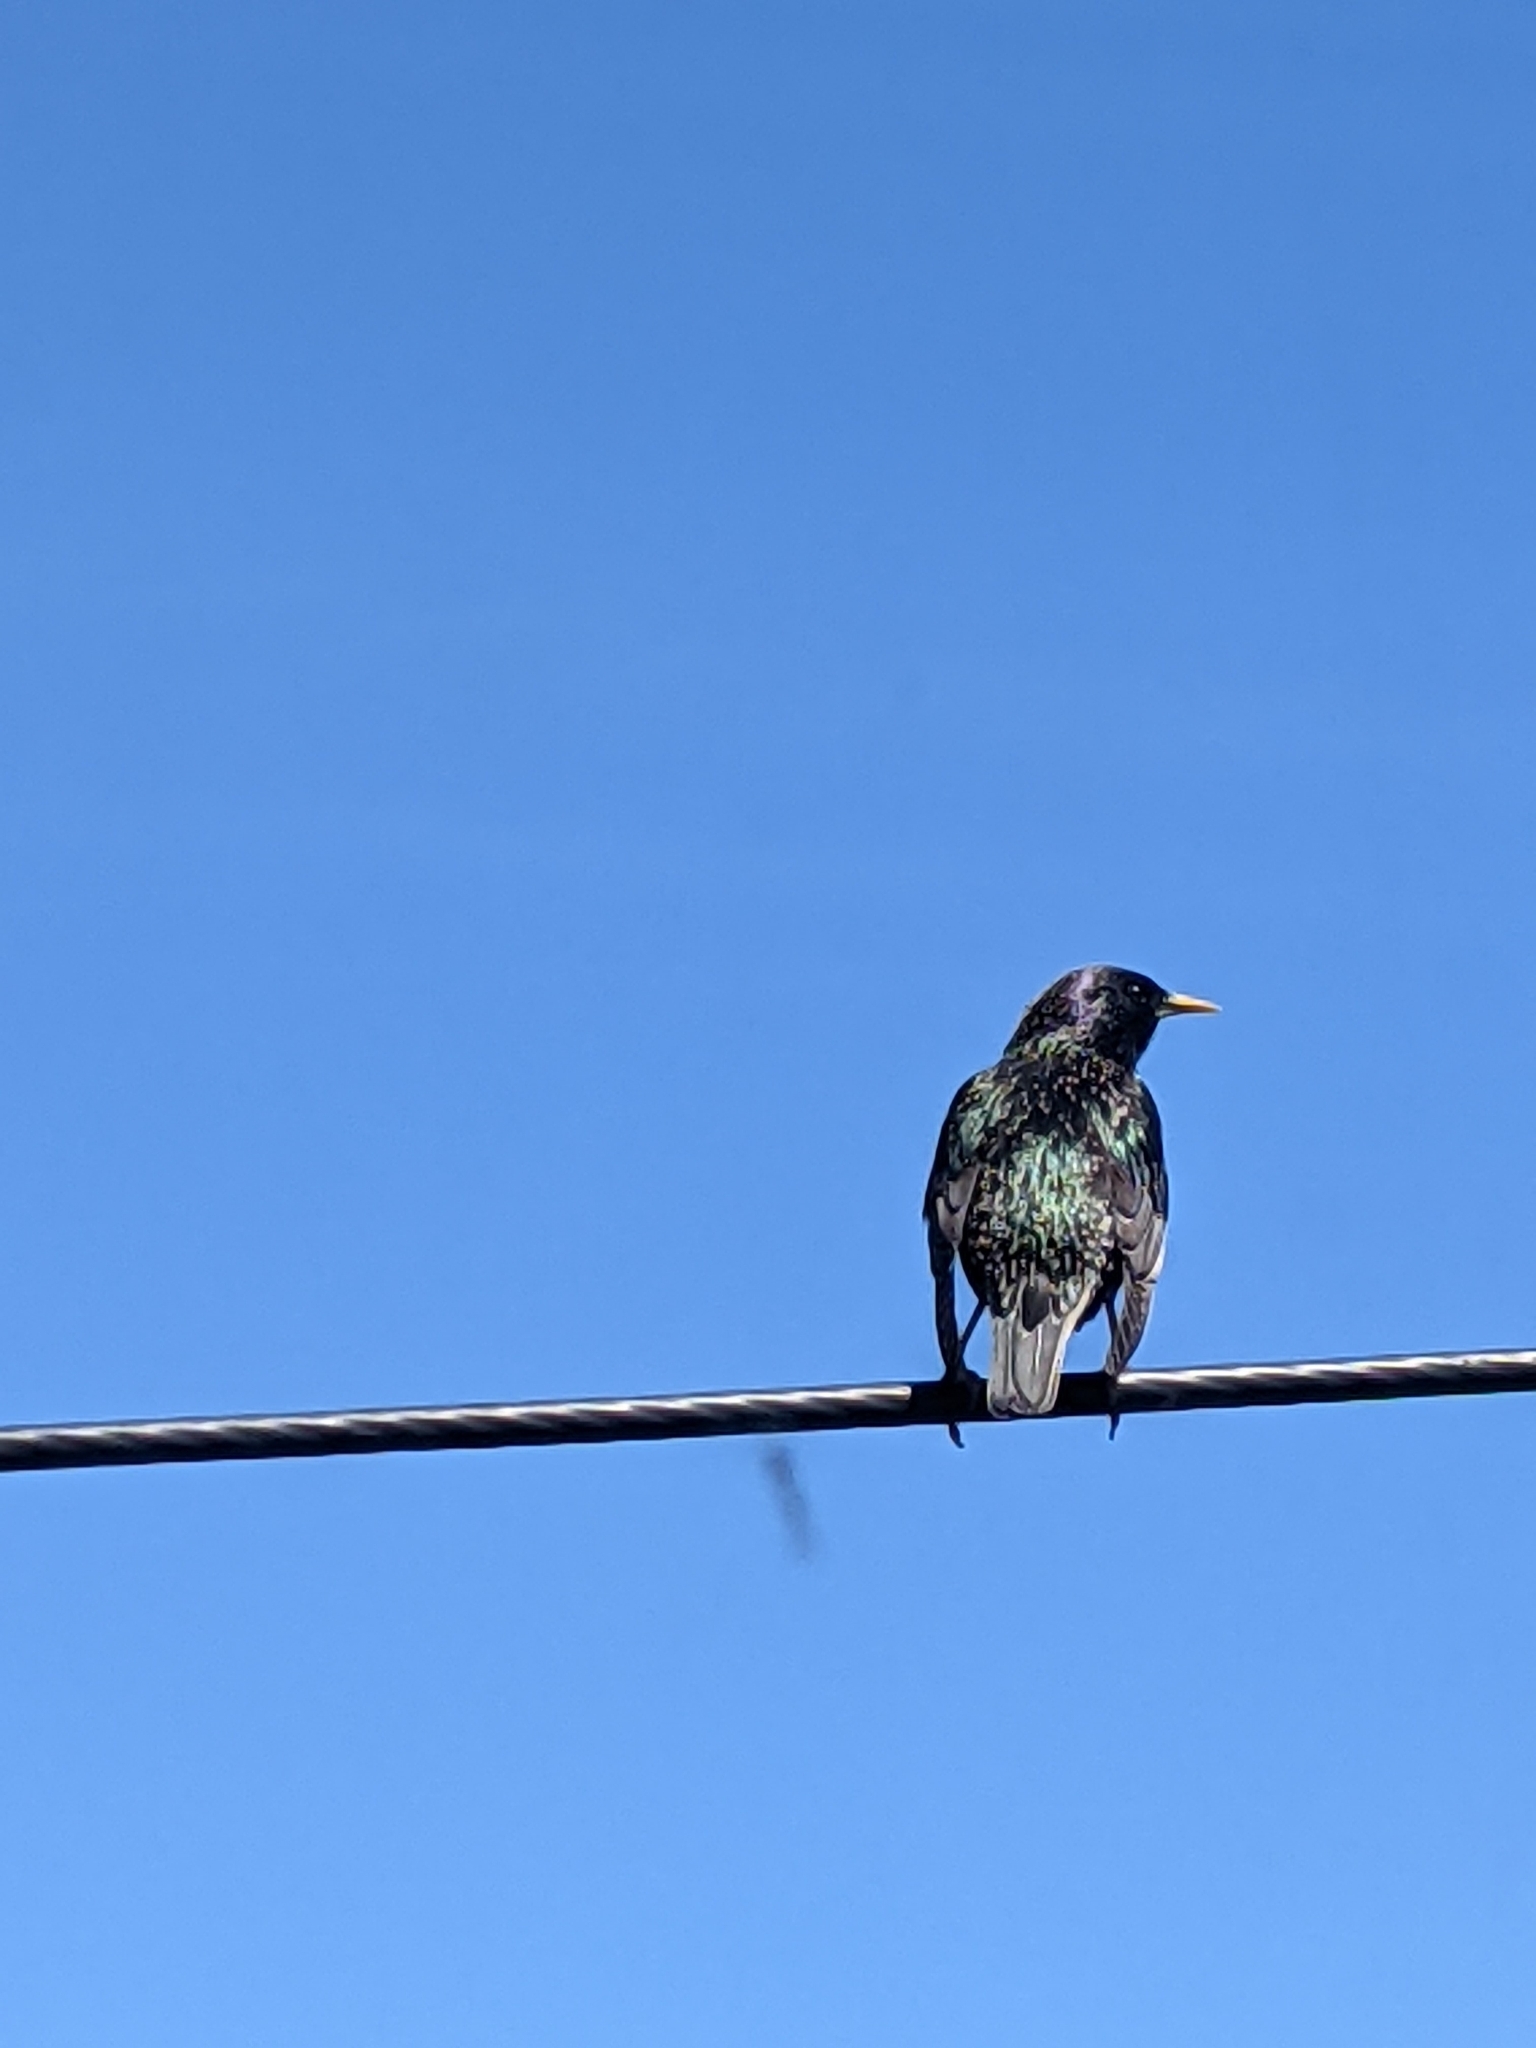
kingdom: Animalia
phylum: Chordata
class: Aves
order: Passeriformes
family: Sturnidae
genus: Sturnus
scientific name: Sturnus vulgaris
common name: Common starling
